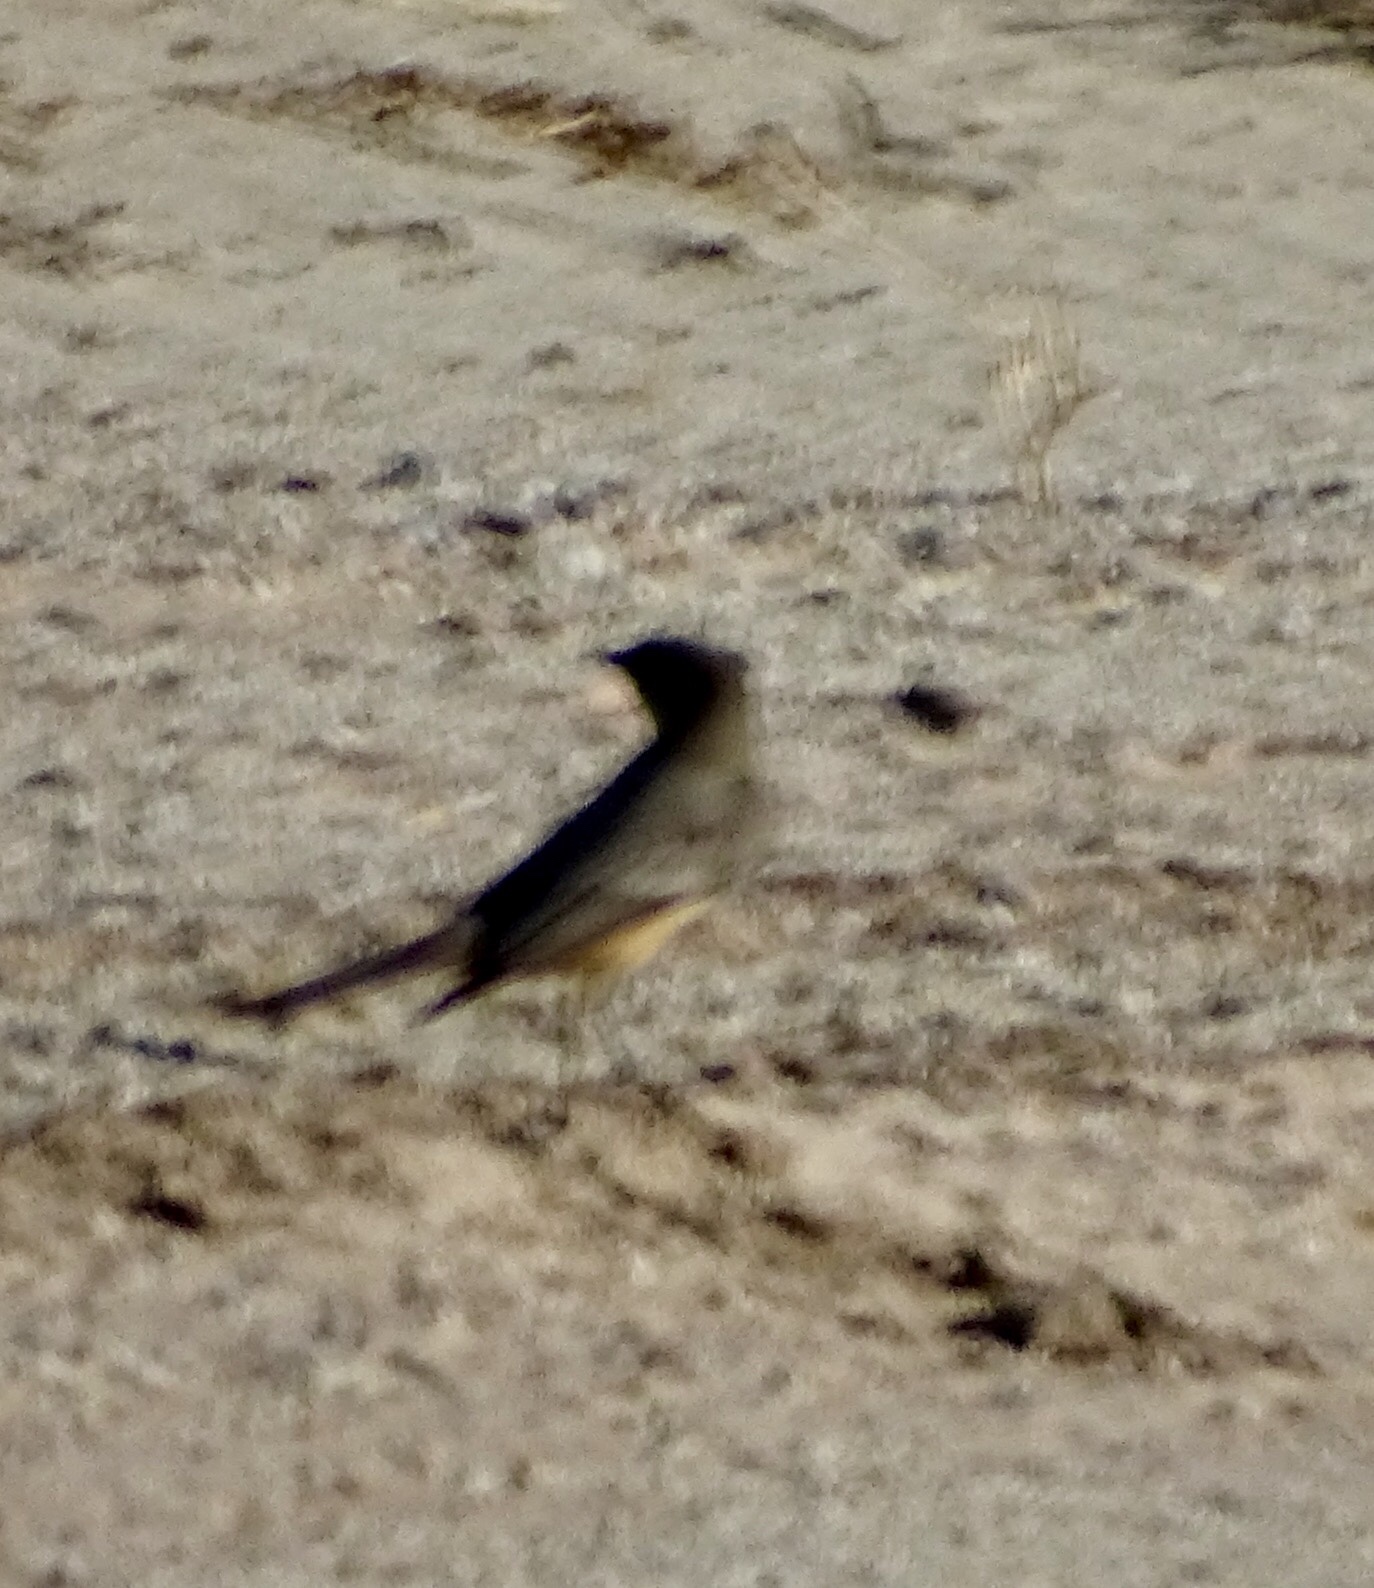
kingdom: Animalia
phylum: Chordata
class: Aves
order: Passeriformes
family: Tyrannidae
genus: Sayornis
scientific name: Sayornis saya
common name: Say's phoebe
